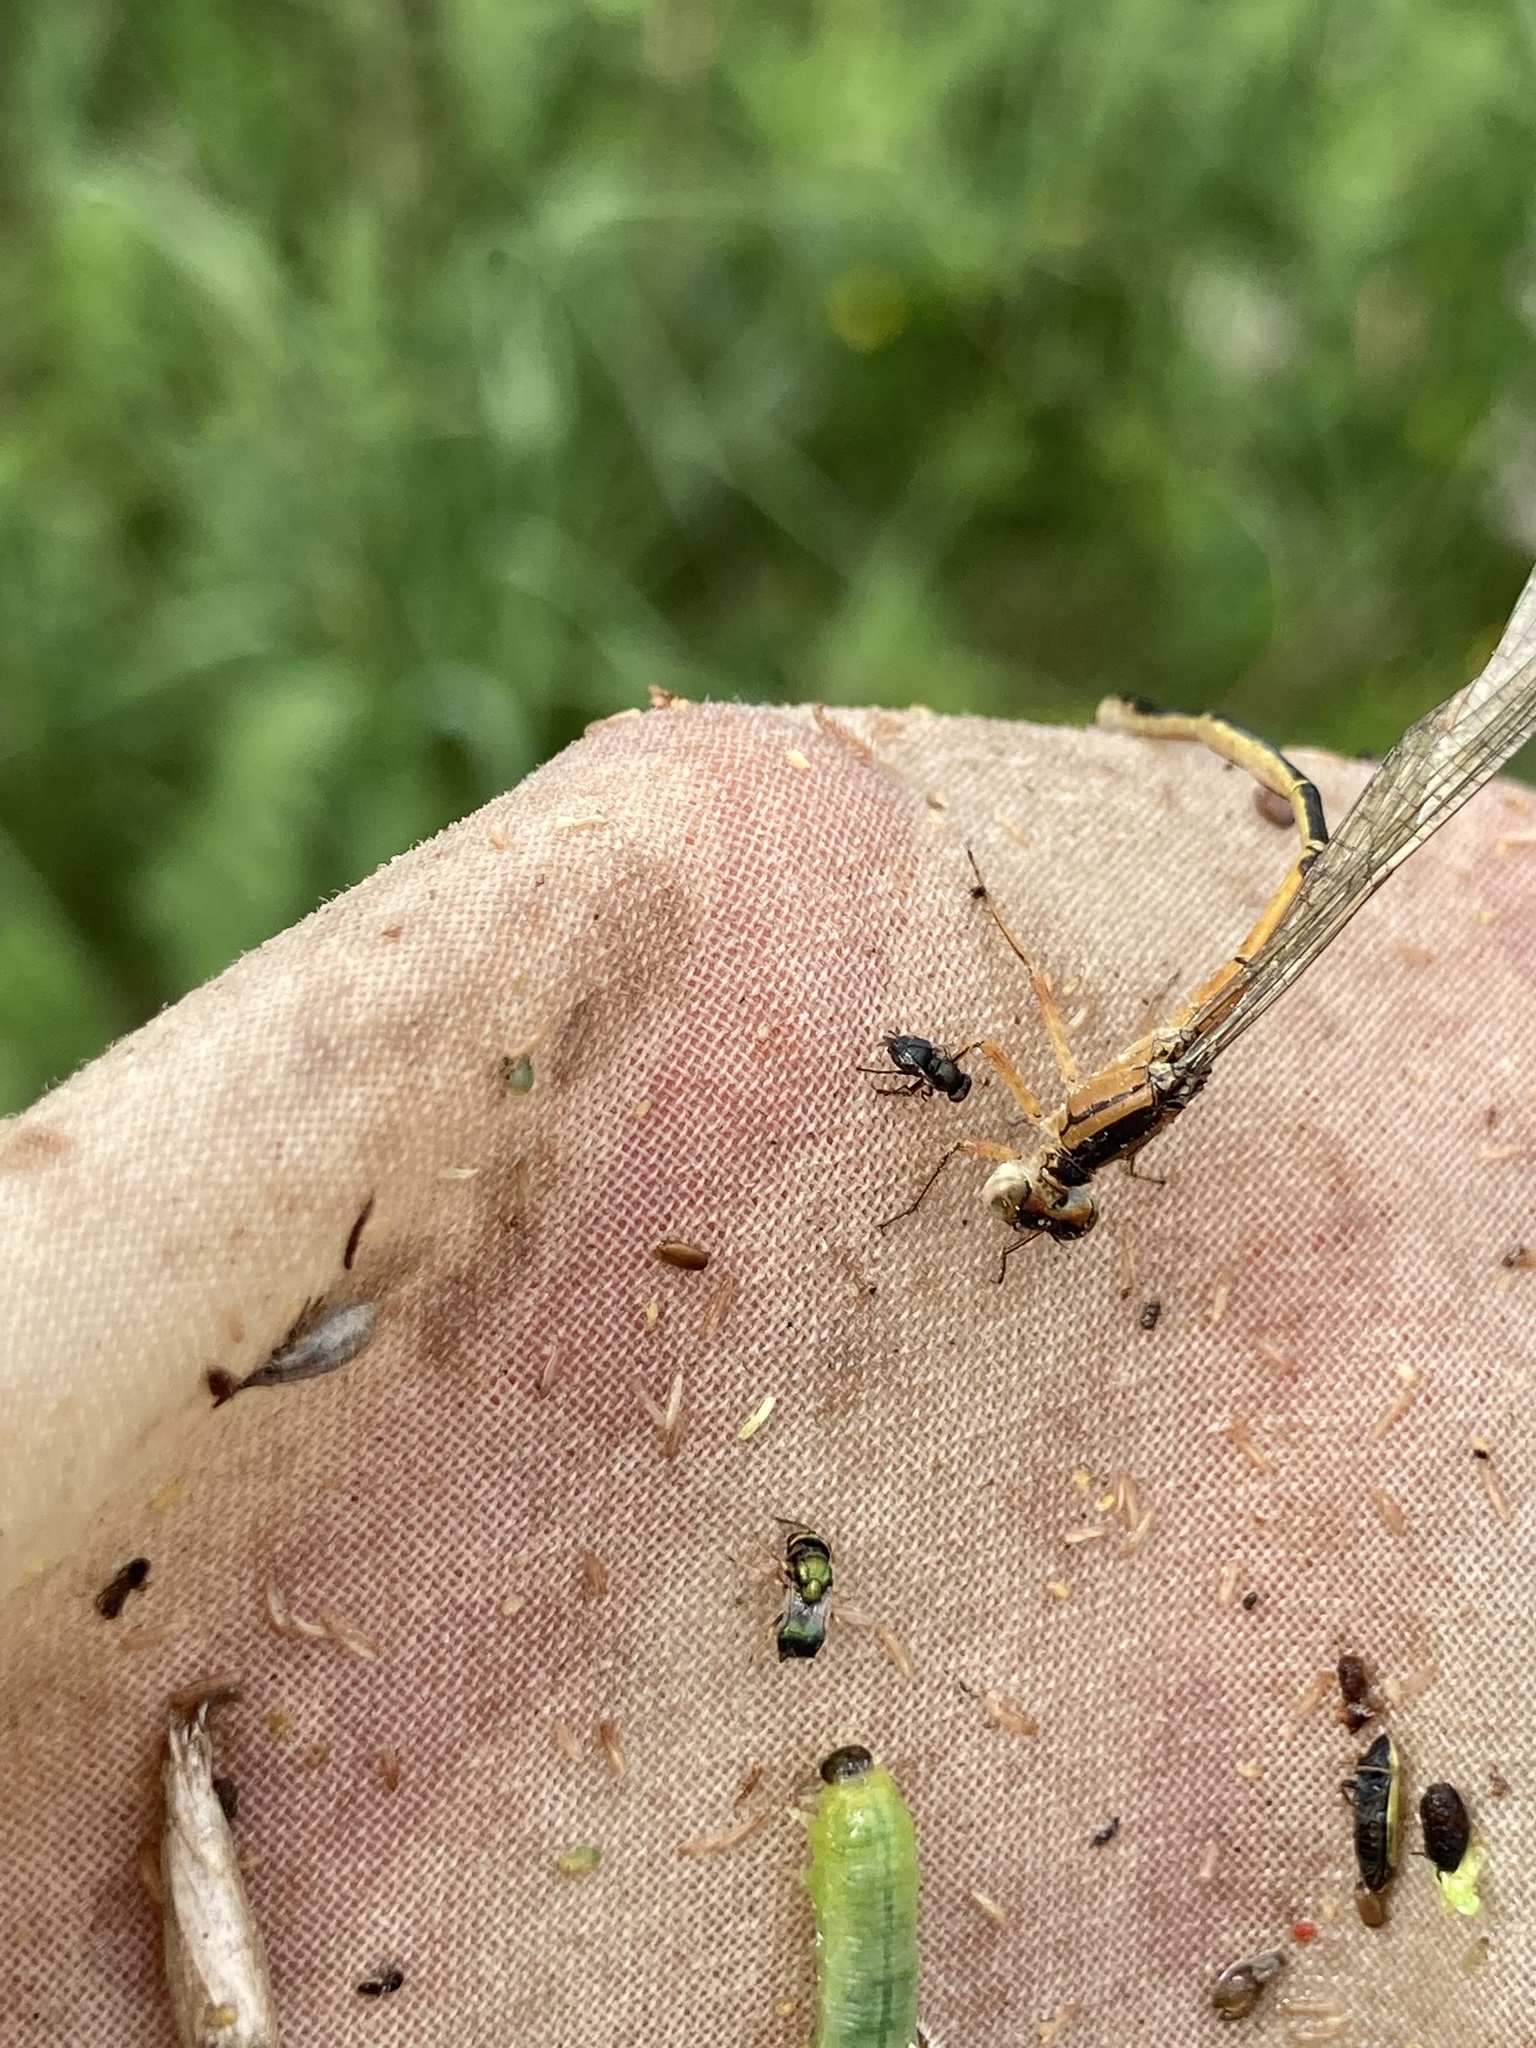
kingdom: Animalia
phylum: Arthropoda
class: Insecta
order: Odonata
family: Coenagrionidae
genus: Enallagma
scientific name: Enallagma signatum
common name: Orange bluet
